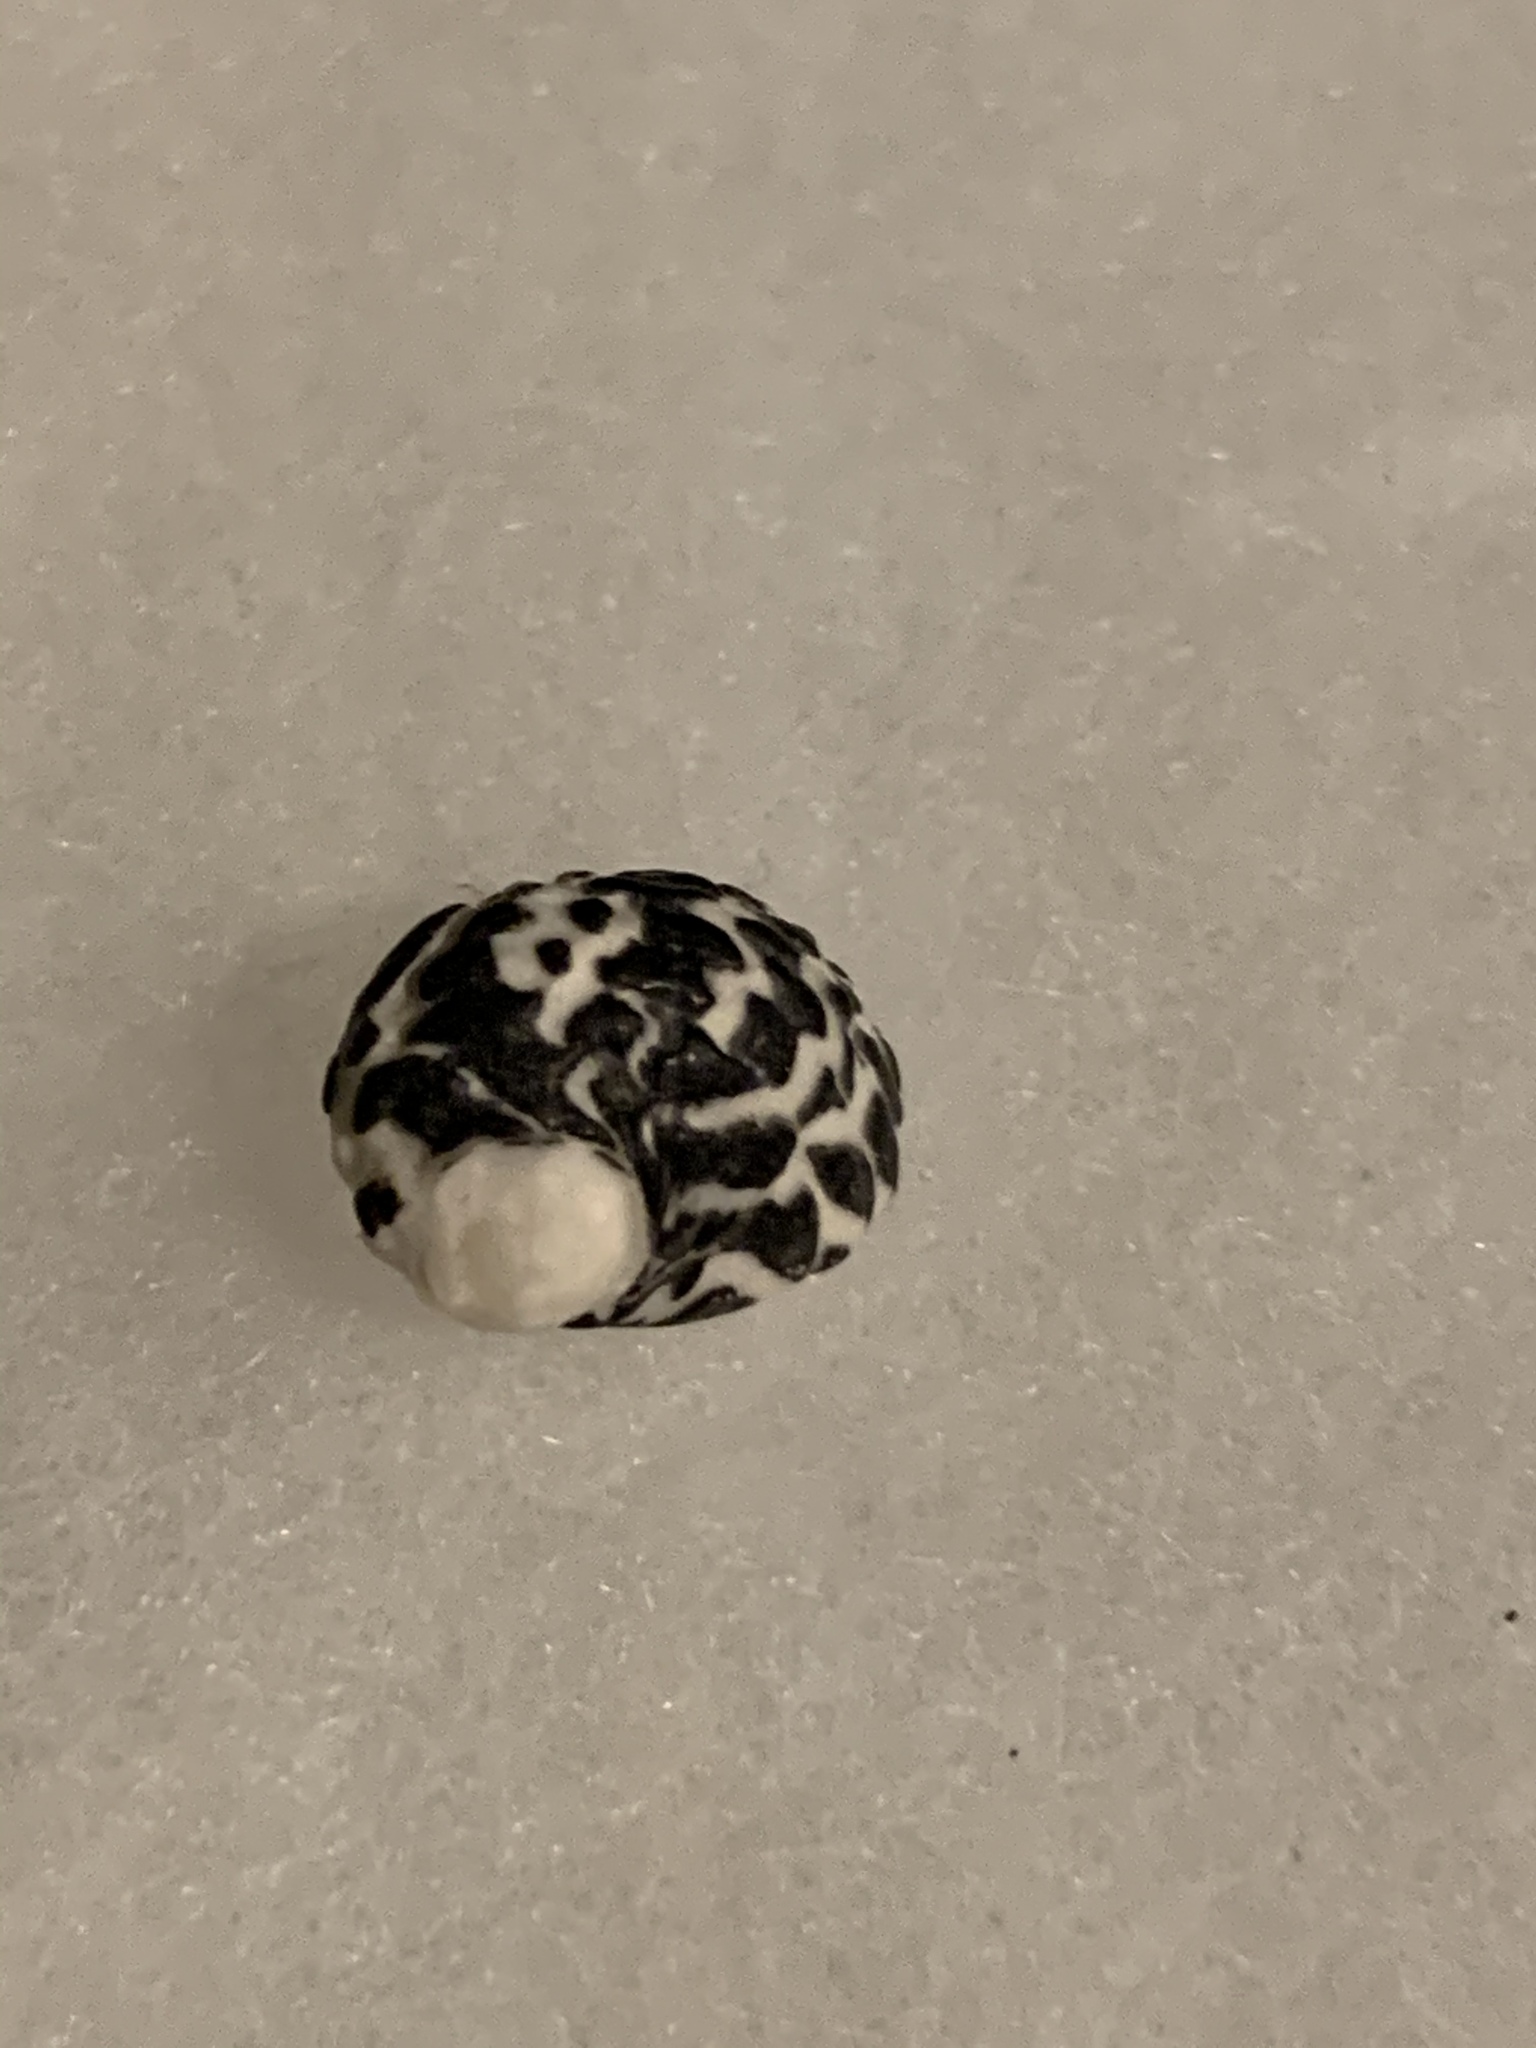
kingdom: Animalia
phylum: Mollusca
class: Gastropoda
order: Cycloneritida
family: Neritidae
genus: Nerita
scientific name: Nerita tessellata
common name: Checkered nerite
